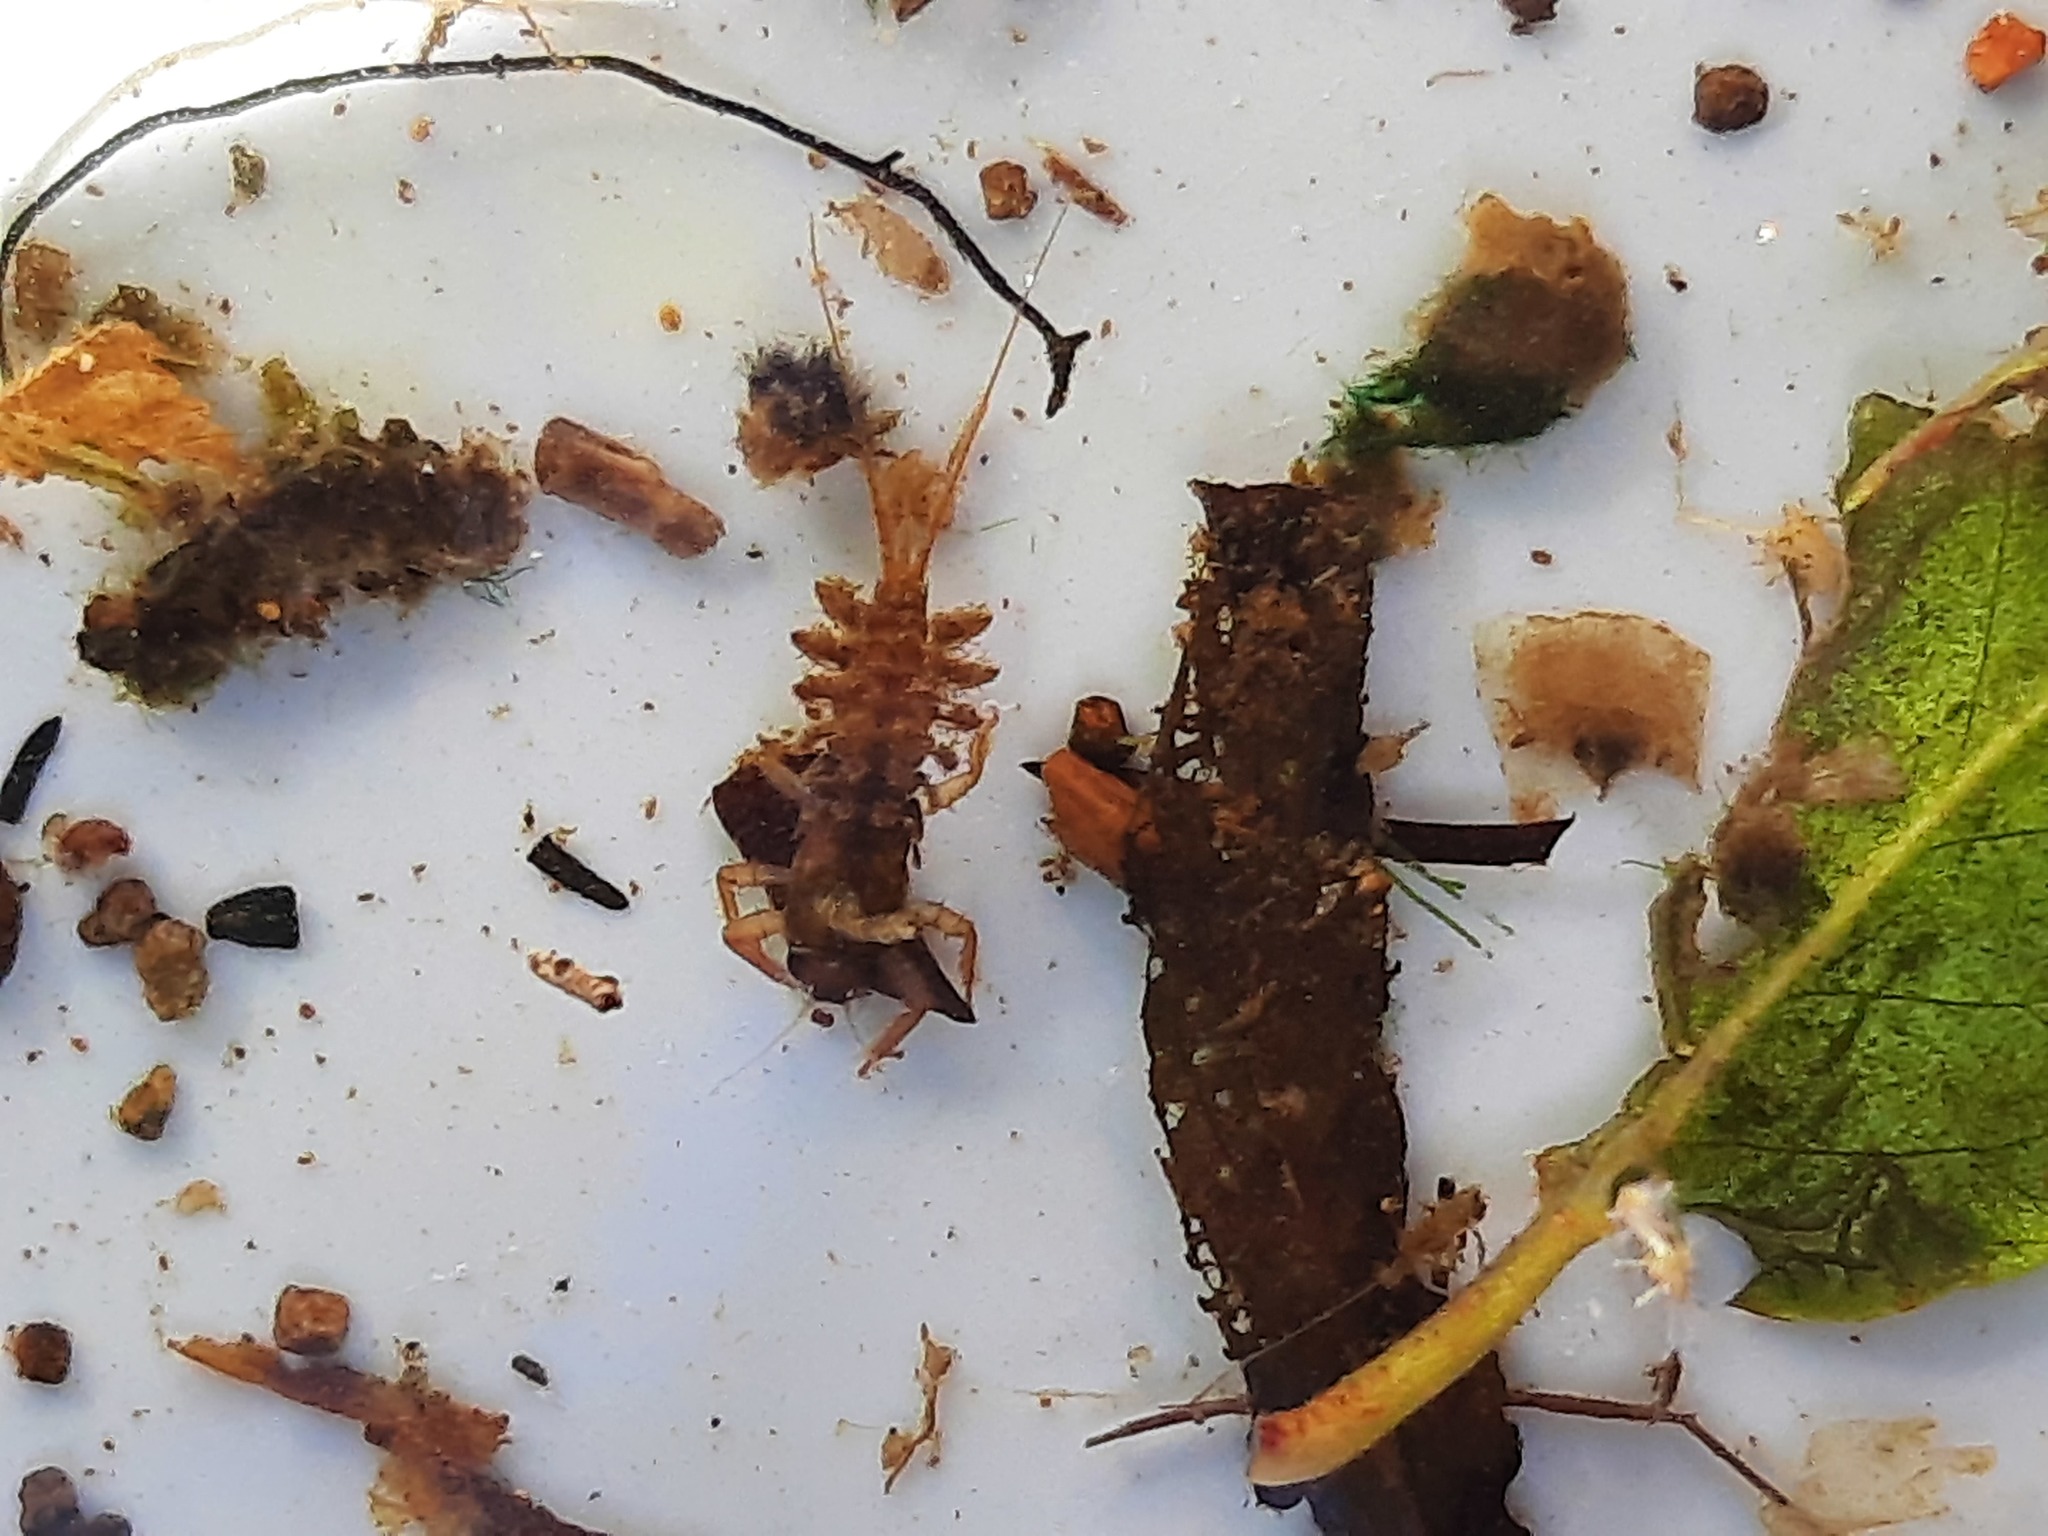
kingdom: Animalia
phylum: Arthropoda
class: Insecta
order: Ephemeroptera
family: Coloburiscidae
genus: Coloburiscus
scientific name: Coloburiscus humeralis
